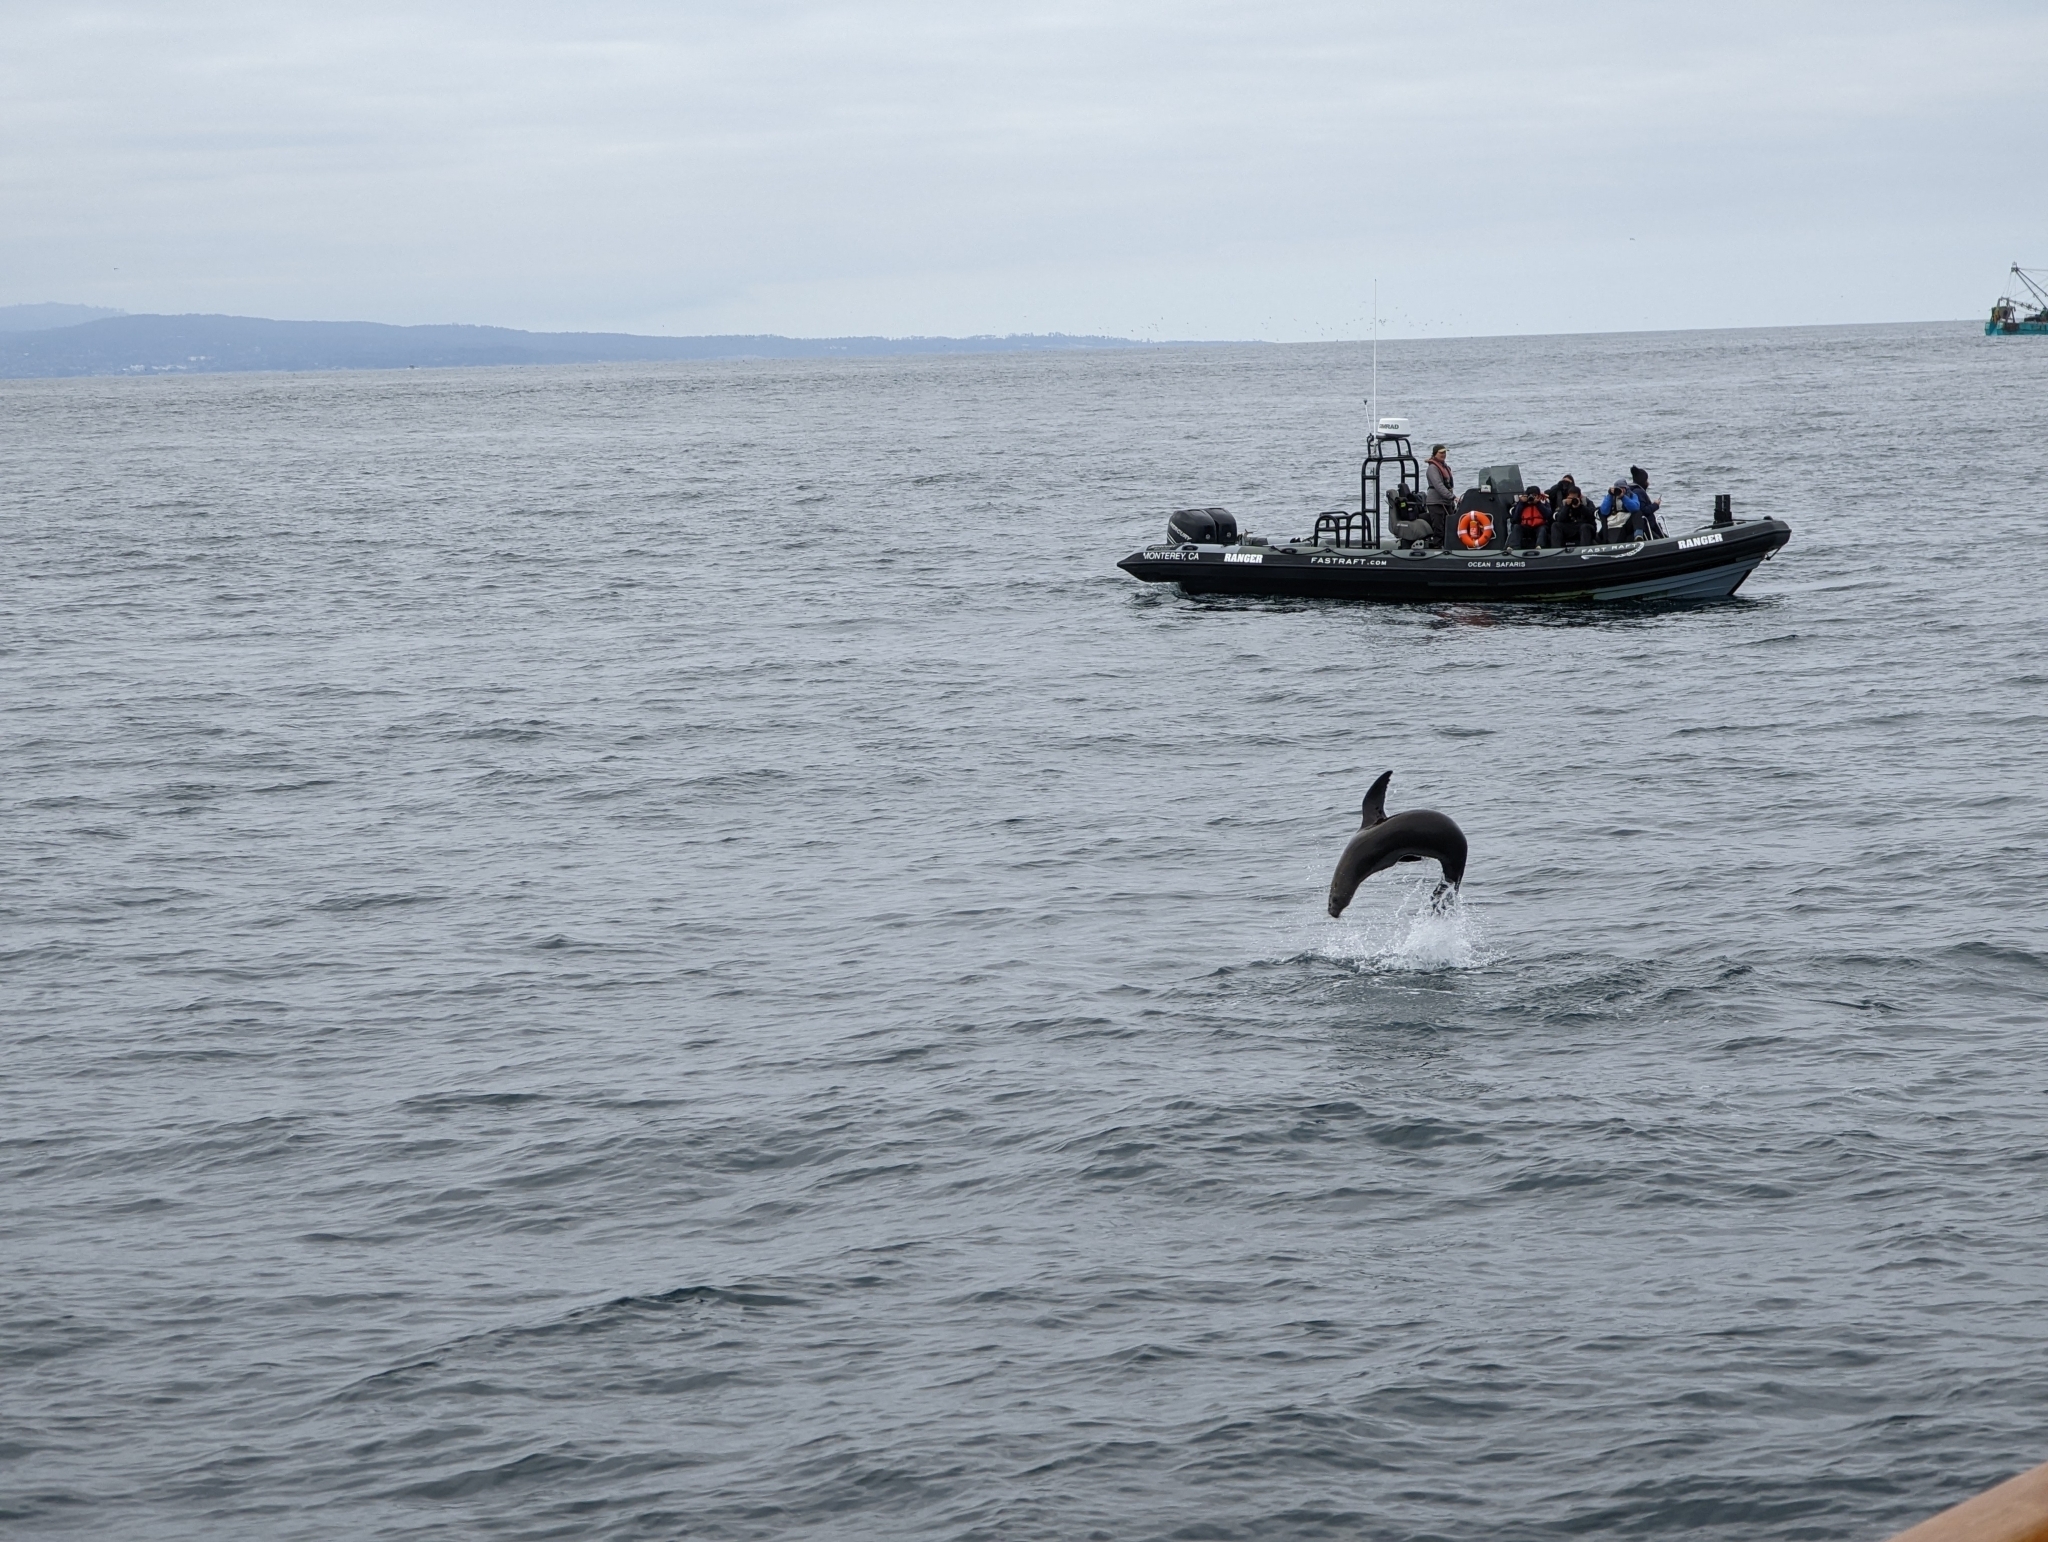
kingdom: Animalia
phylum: Chordata
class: Mammalia
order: Carnivora
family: Otariidae
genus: Zalophus
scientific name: Zalophus californianus
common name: California sea lion
